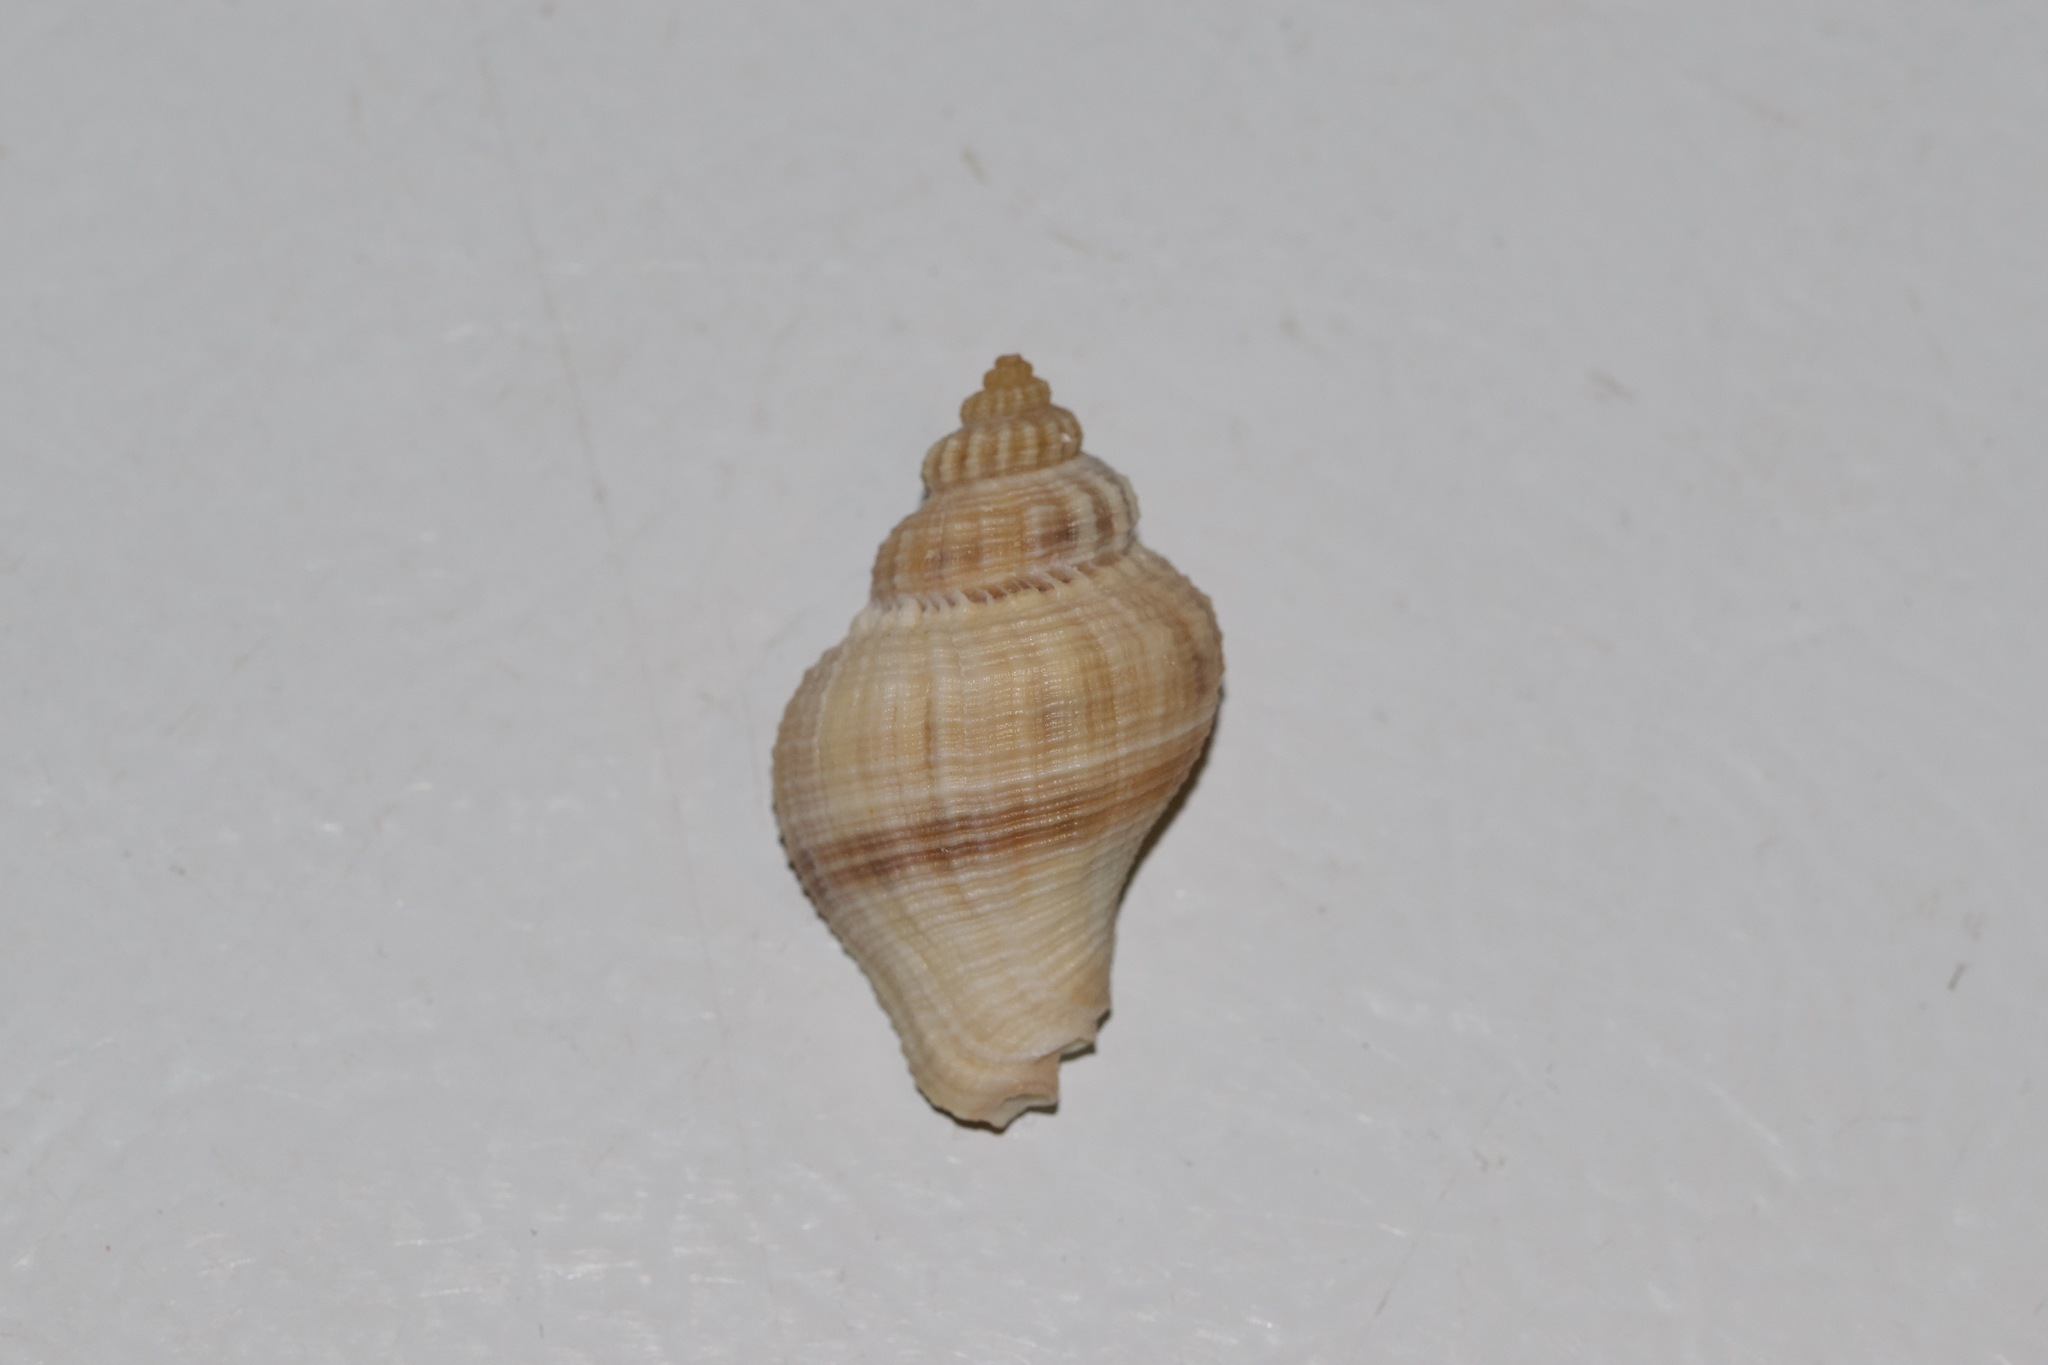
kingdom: Animalia
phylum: Mollusca
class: Gastropoda
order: Neogastropoda
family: Melongenidae
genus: Melongena
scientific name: Melongena corona
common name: American crown conch
